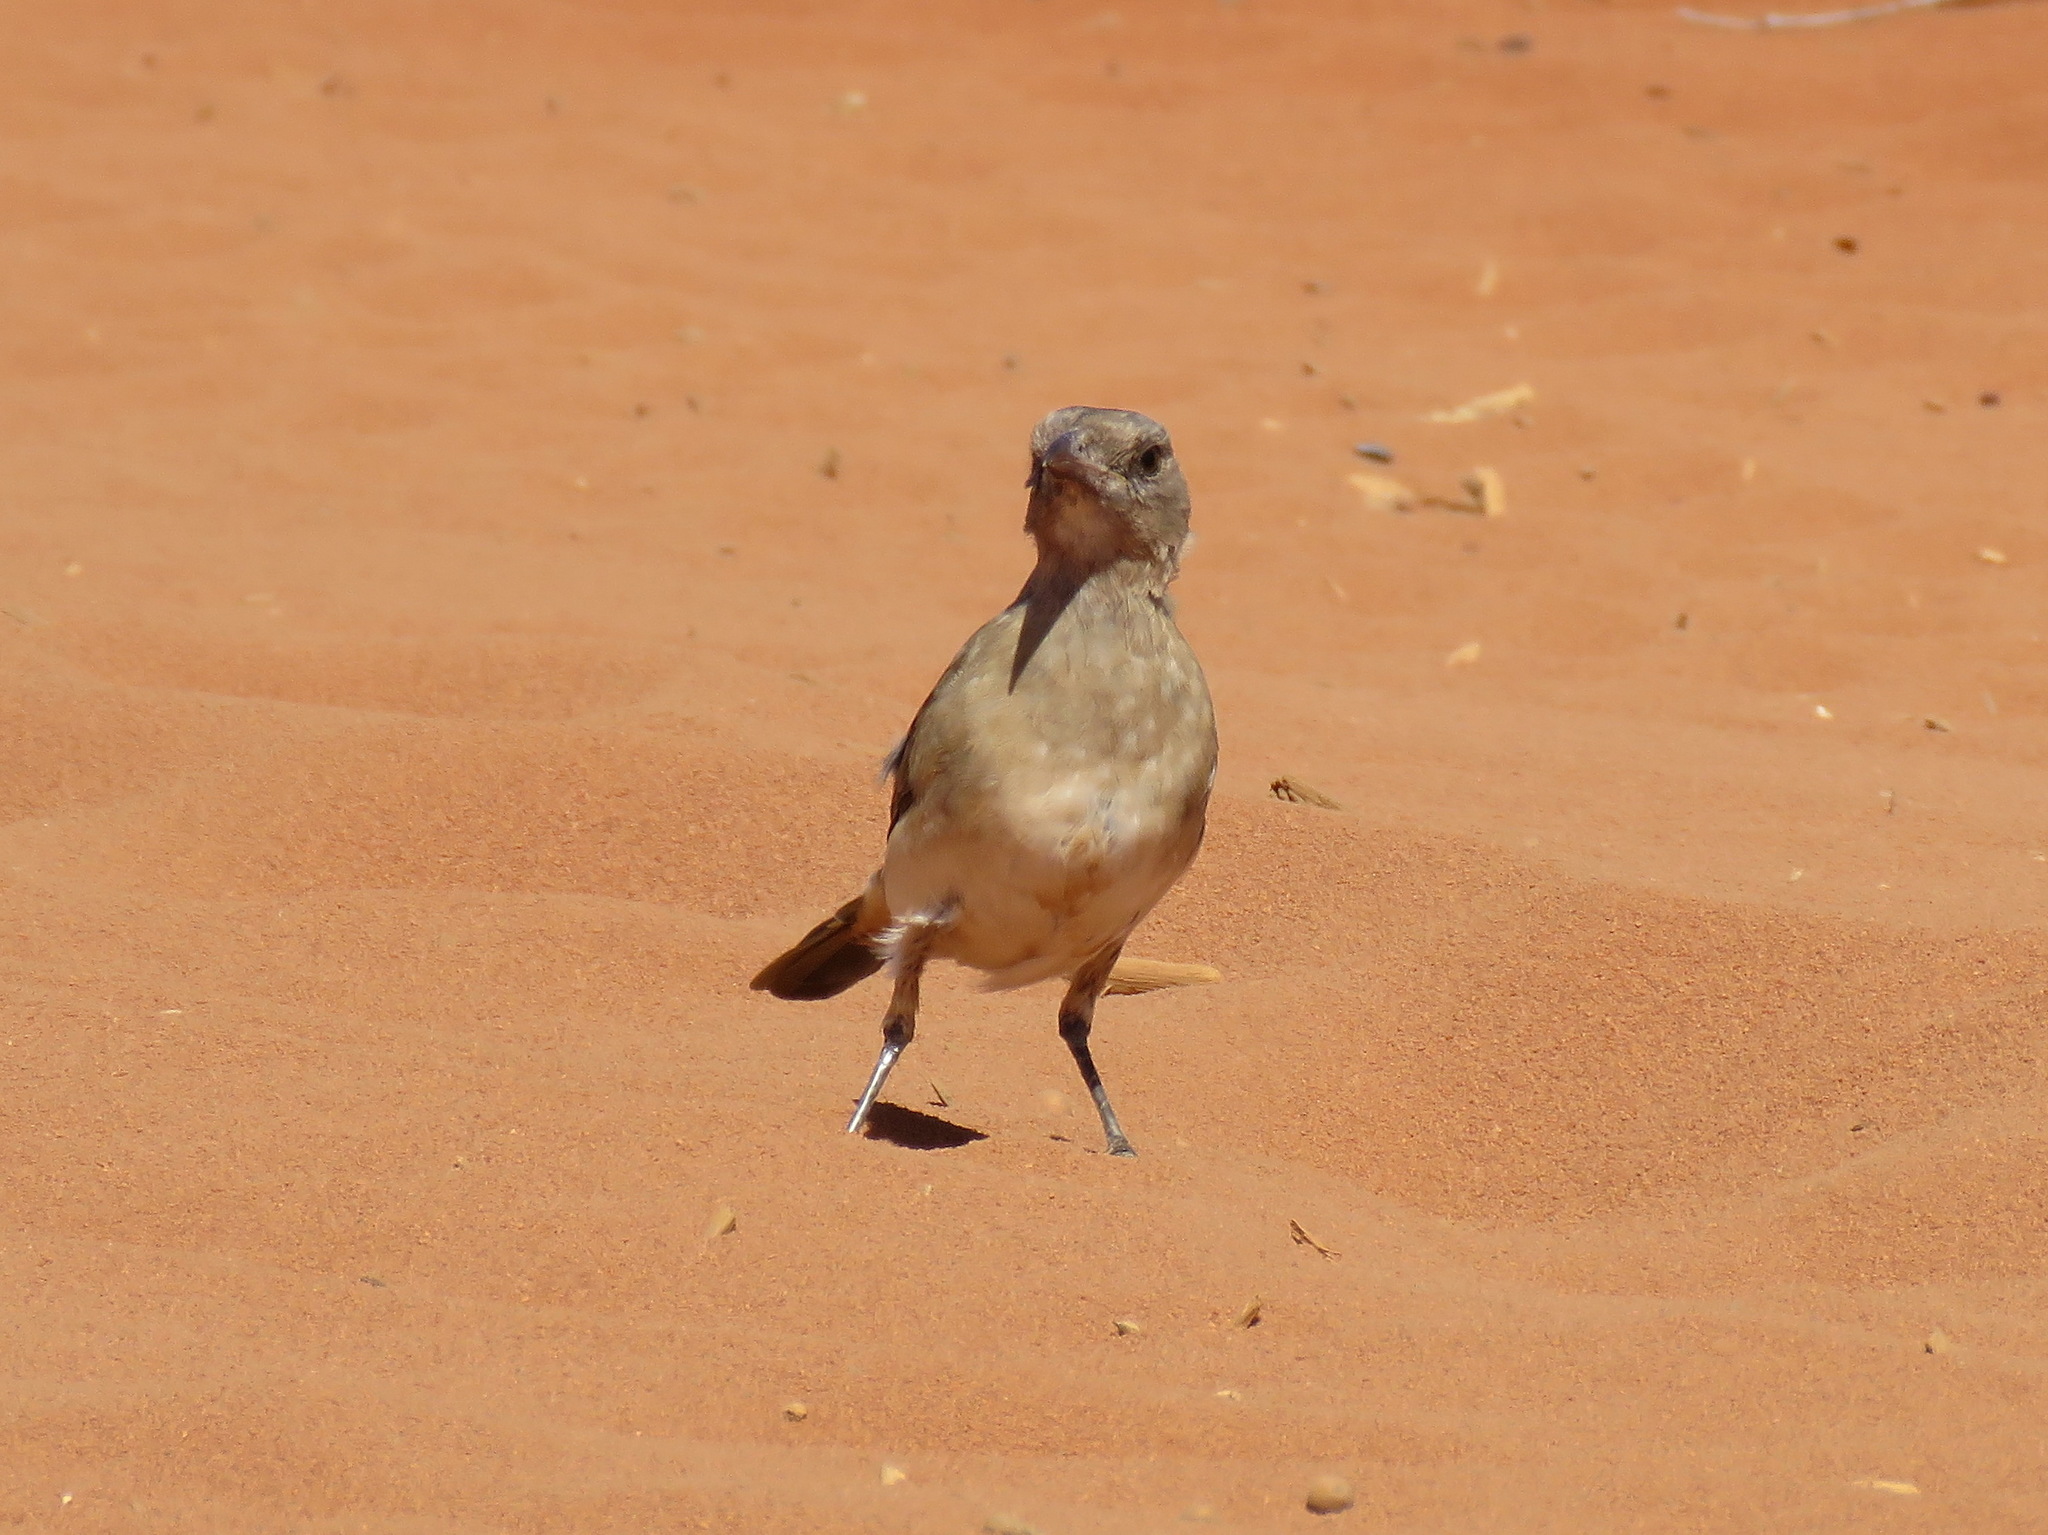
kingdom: Animalia
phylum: Chordata
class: Aves
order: Passeriformes
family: Oreoicidae
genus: Oreoica
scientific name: Oreoica gutturalis
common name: Crested bellbird
